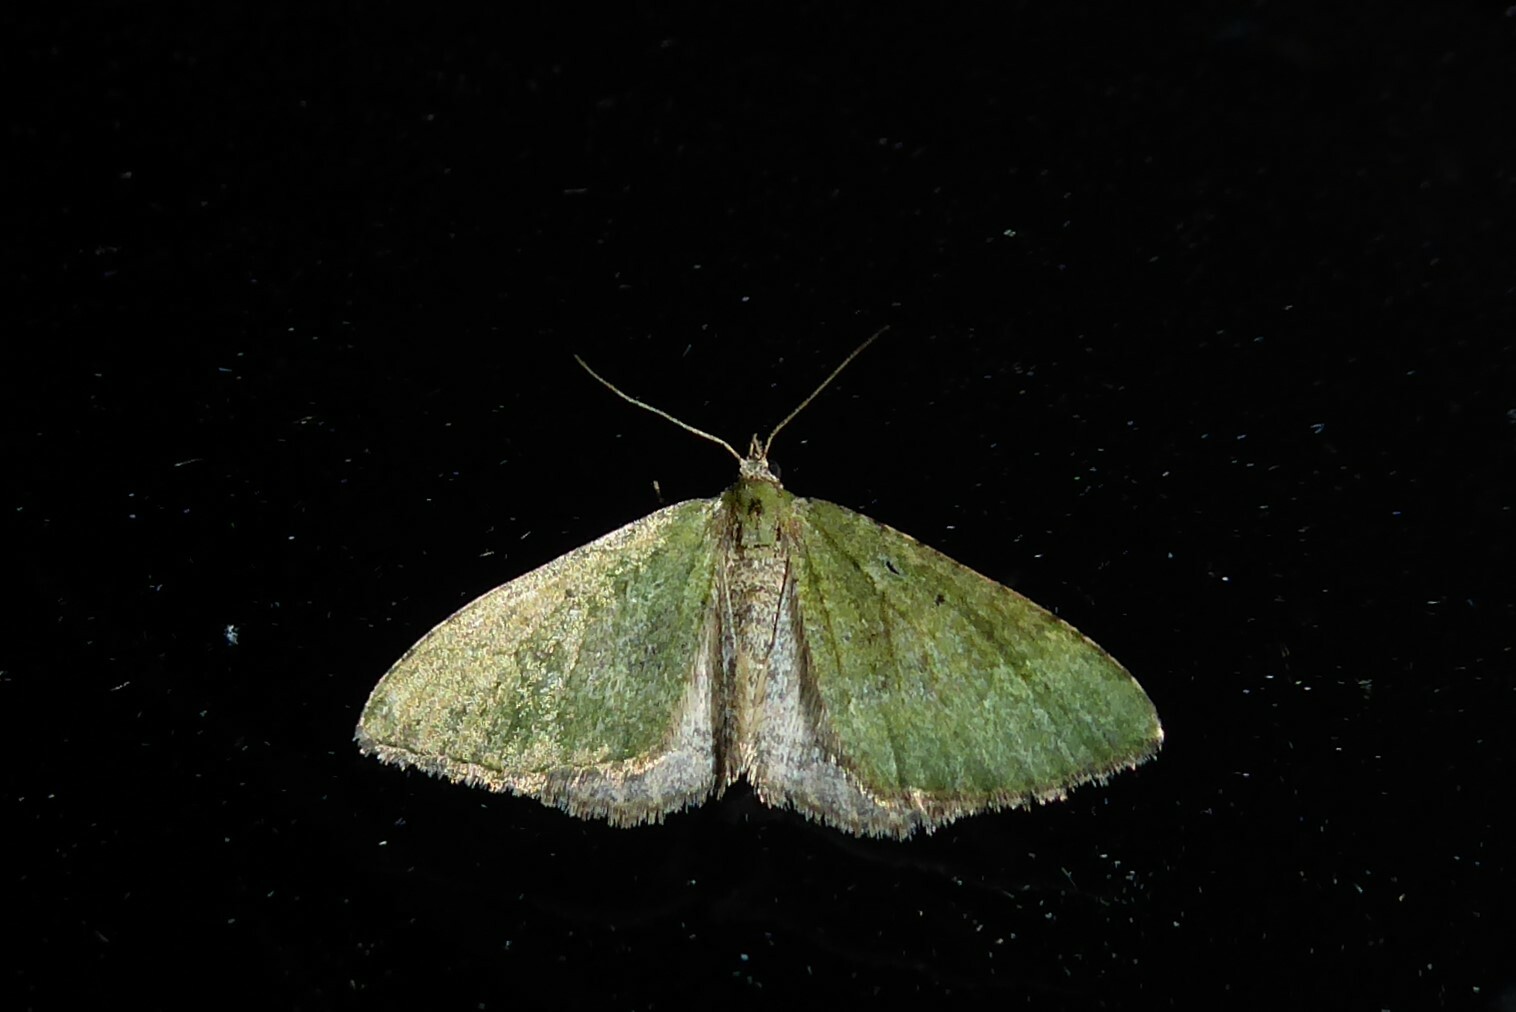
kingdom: Animalia
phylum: Arthropoda
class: Insecta
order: Lepidoptera
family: Geometridae
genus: Epyaxa
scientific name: Epyaxa rosearia
